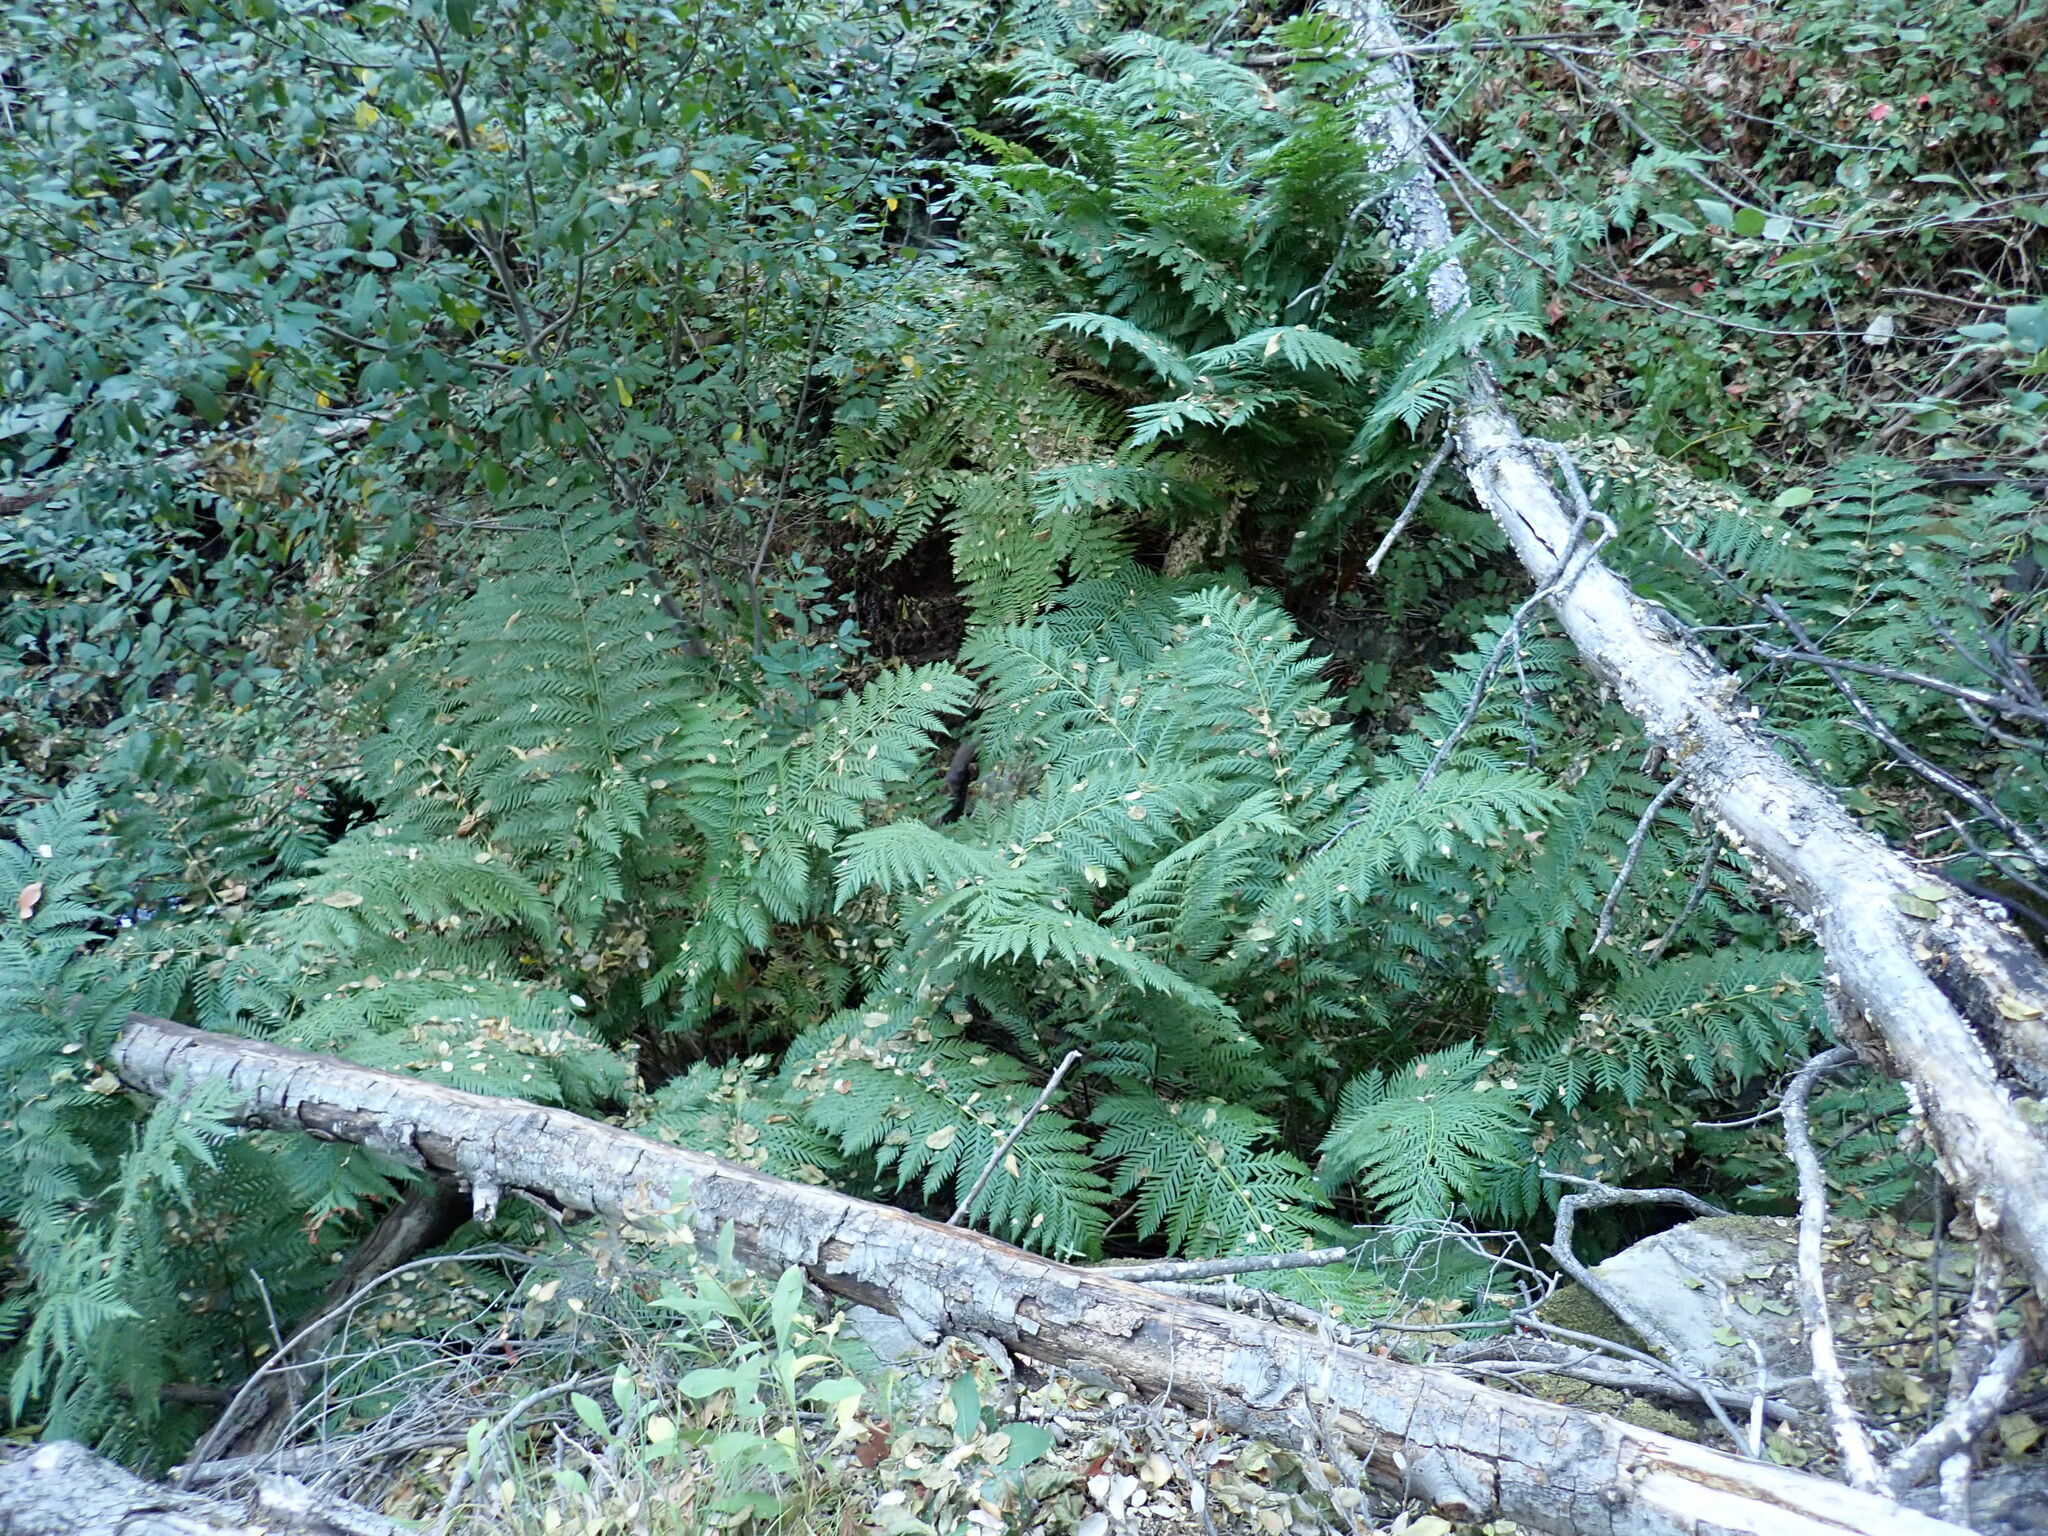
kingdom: Plantae
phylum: Tracheophyta
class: Polypodiopsida
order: Polypodiales
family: Blechnaceae
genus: Woodwardia
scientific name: Woodwardia fimbriata
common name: Giant chain fern
